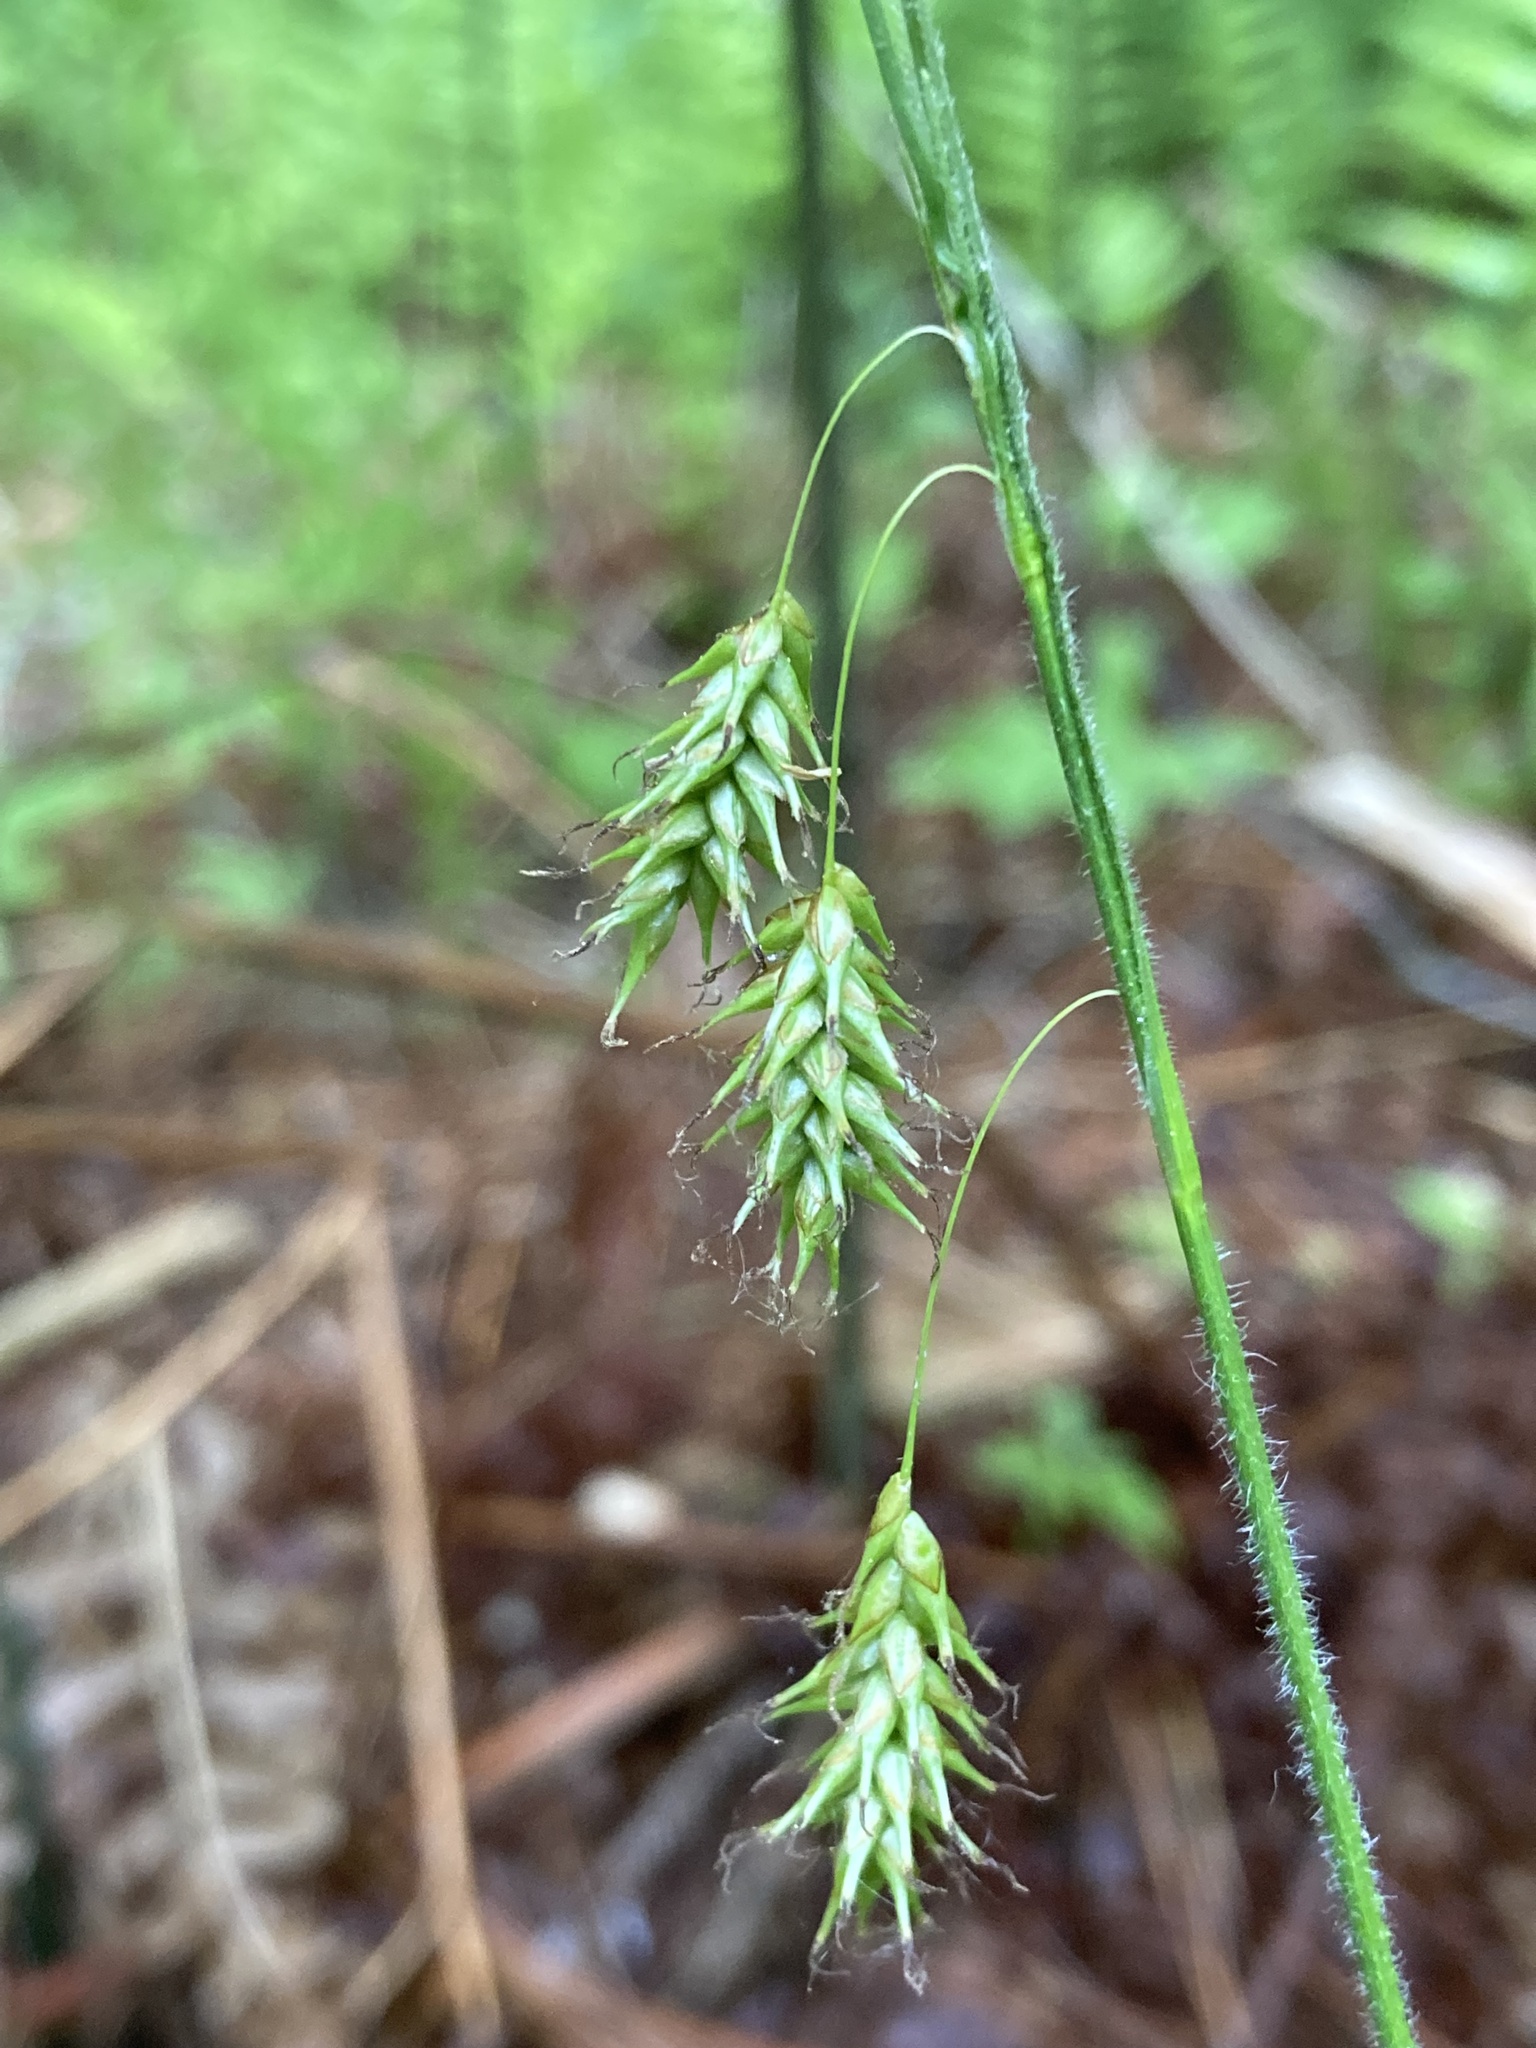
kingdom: Plantae
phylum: Tracheophyta
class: Liliopsida
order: Poales
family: Cyperaceae
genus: Carex
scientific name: Carex castanea
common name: Chestnut sedge
